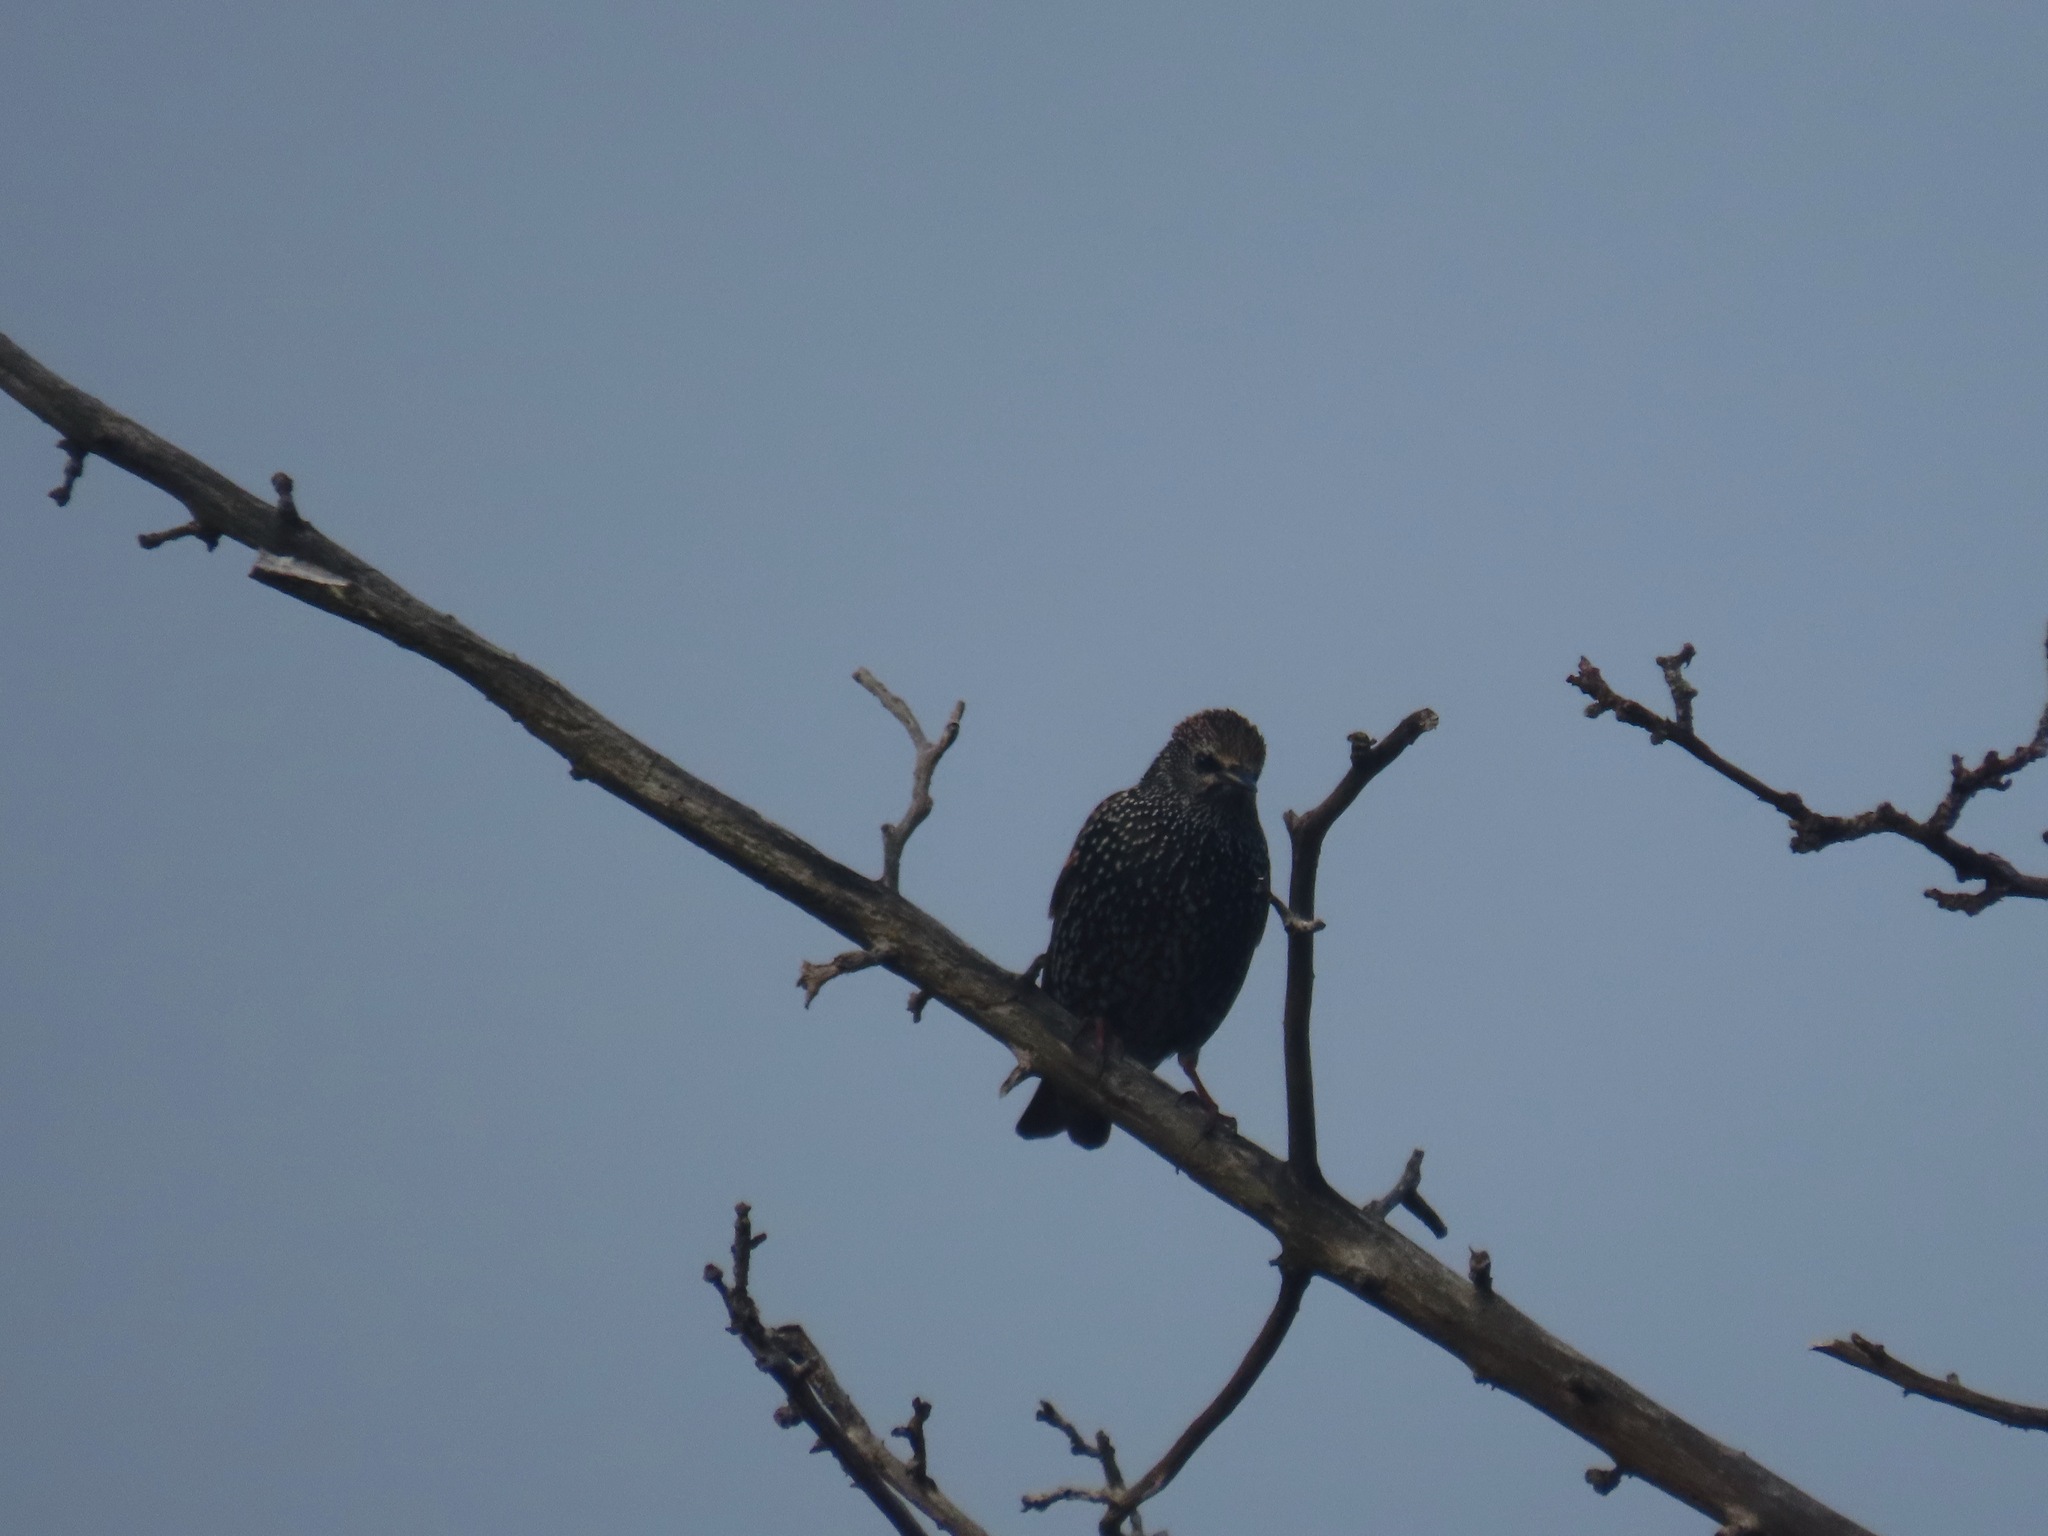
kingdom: Animalia
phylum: Chordata
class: Aves
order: Passeriformes
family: Sturnidae
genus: Sturnus
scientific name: Sturnus vulgaris
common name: Common starling
